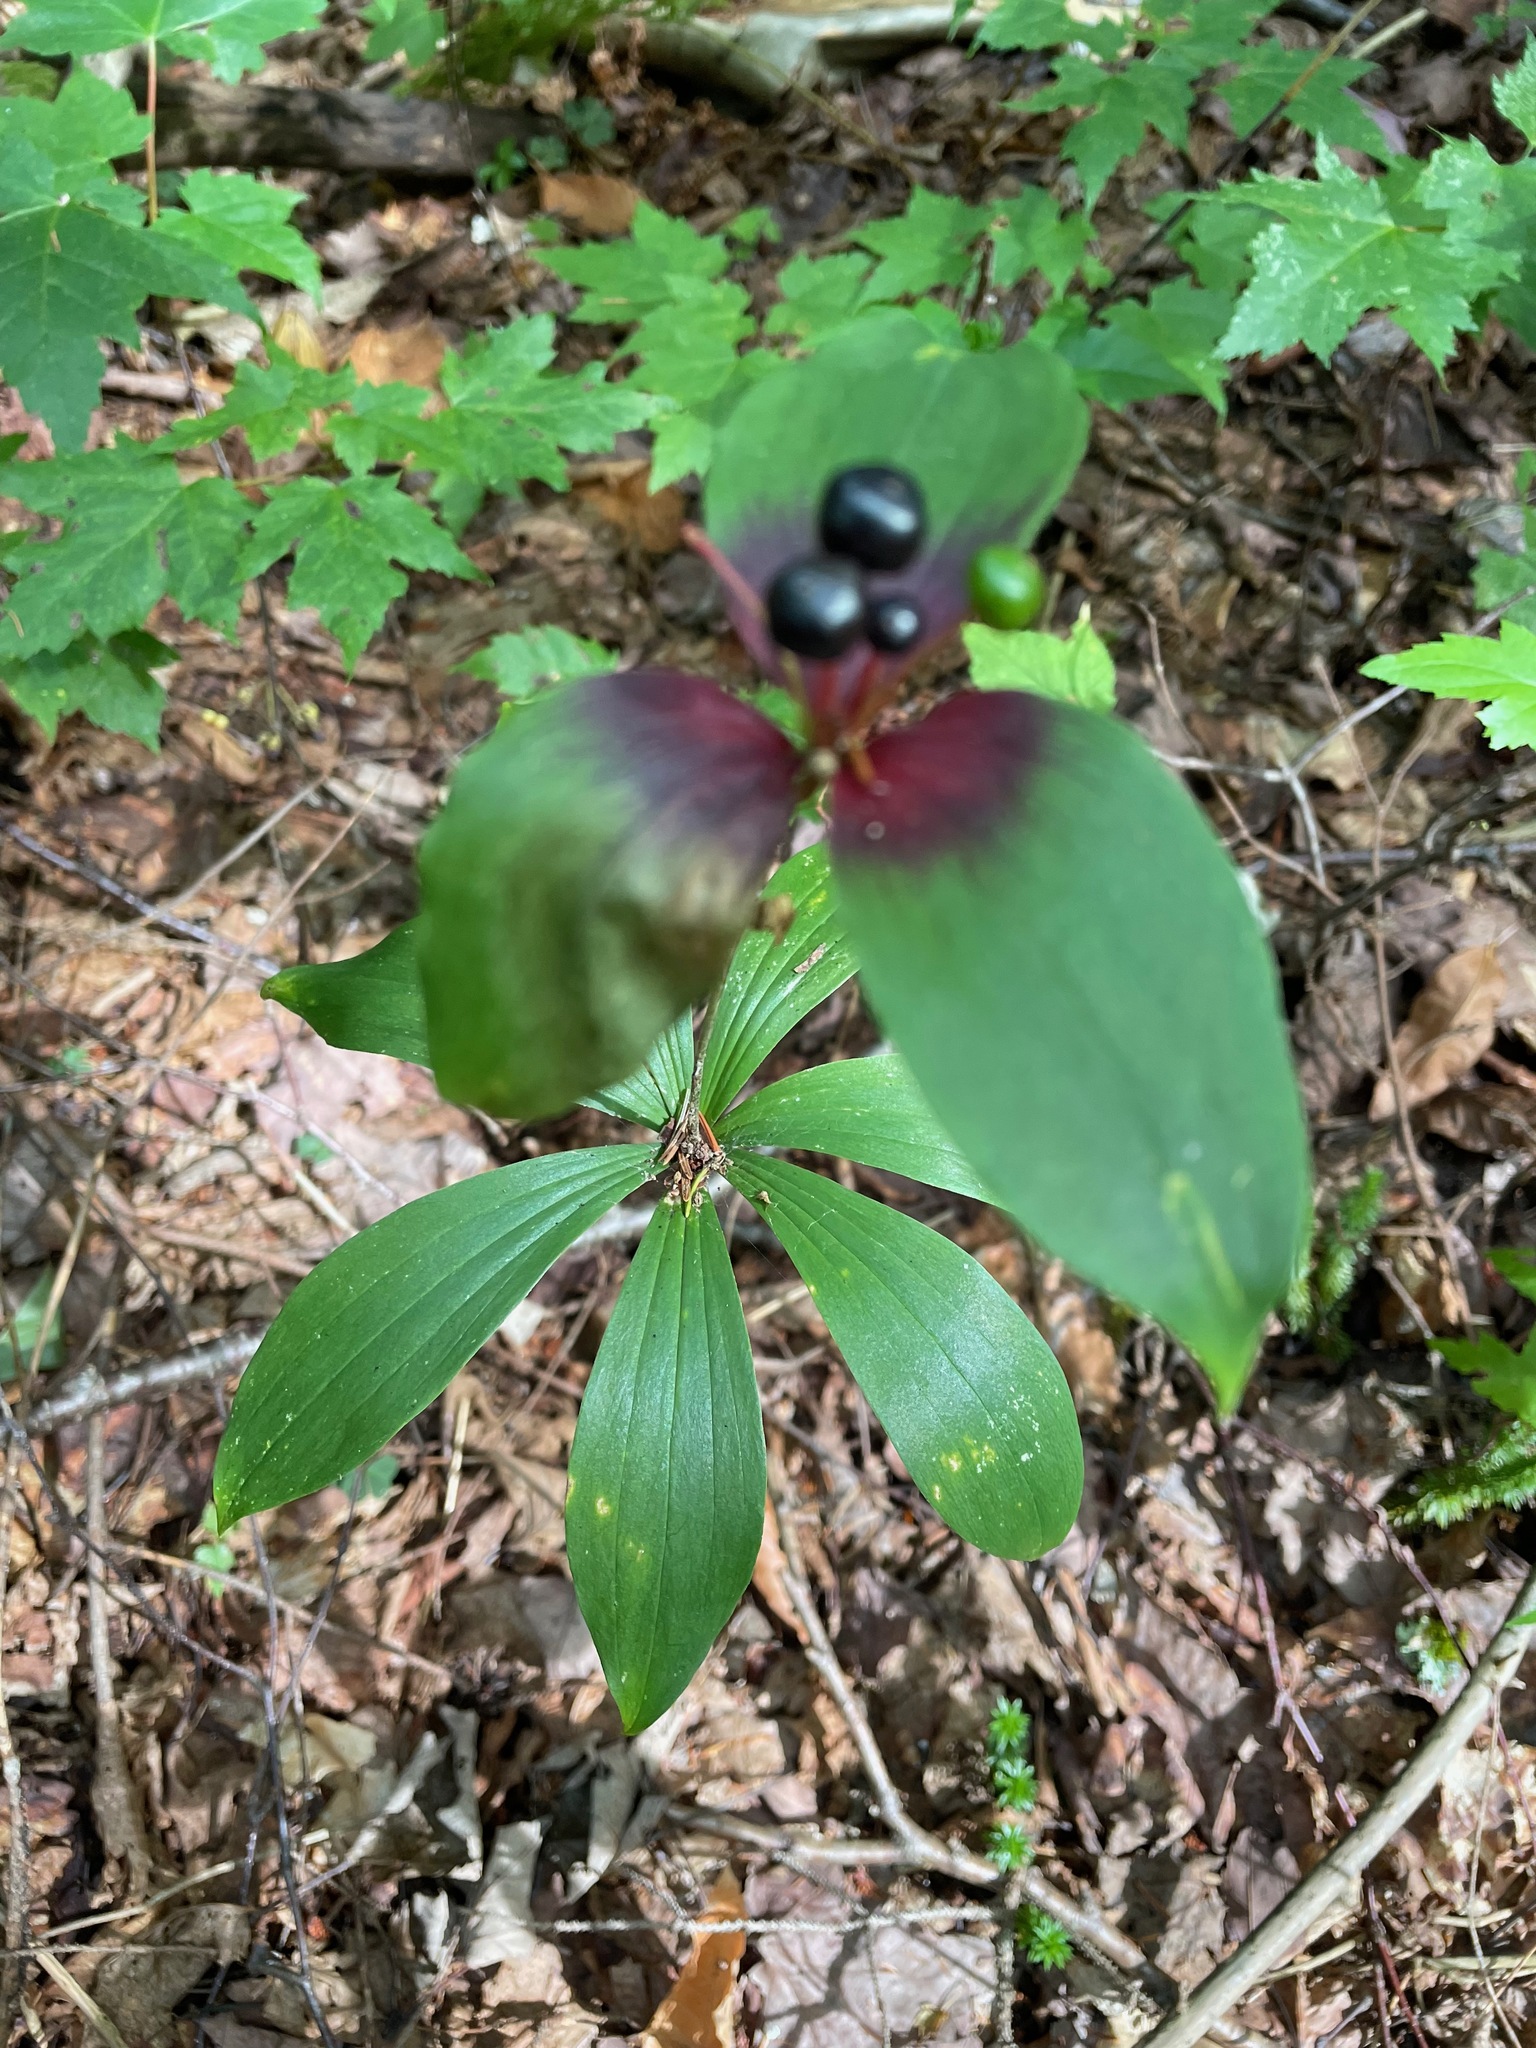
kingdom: Plantae
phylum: Tracheophyta
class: Liliopsida
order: Liliales
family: Liliaceae
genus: Medeola
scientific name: Medeola virginiana
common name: Indian cucumber-root
